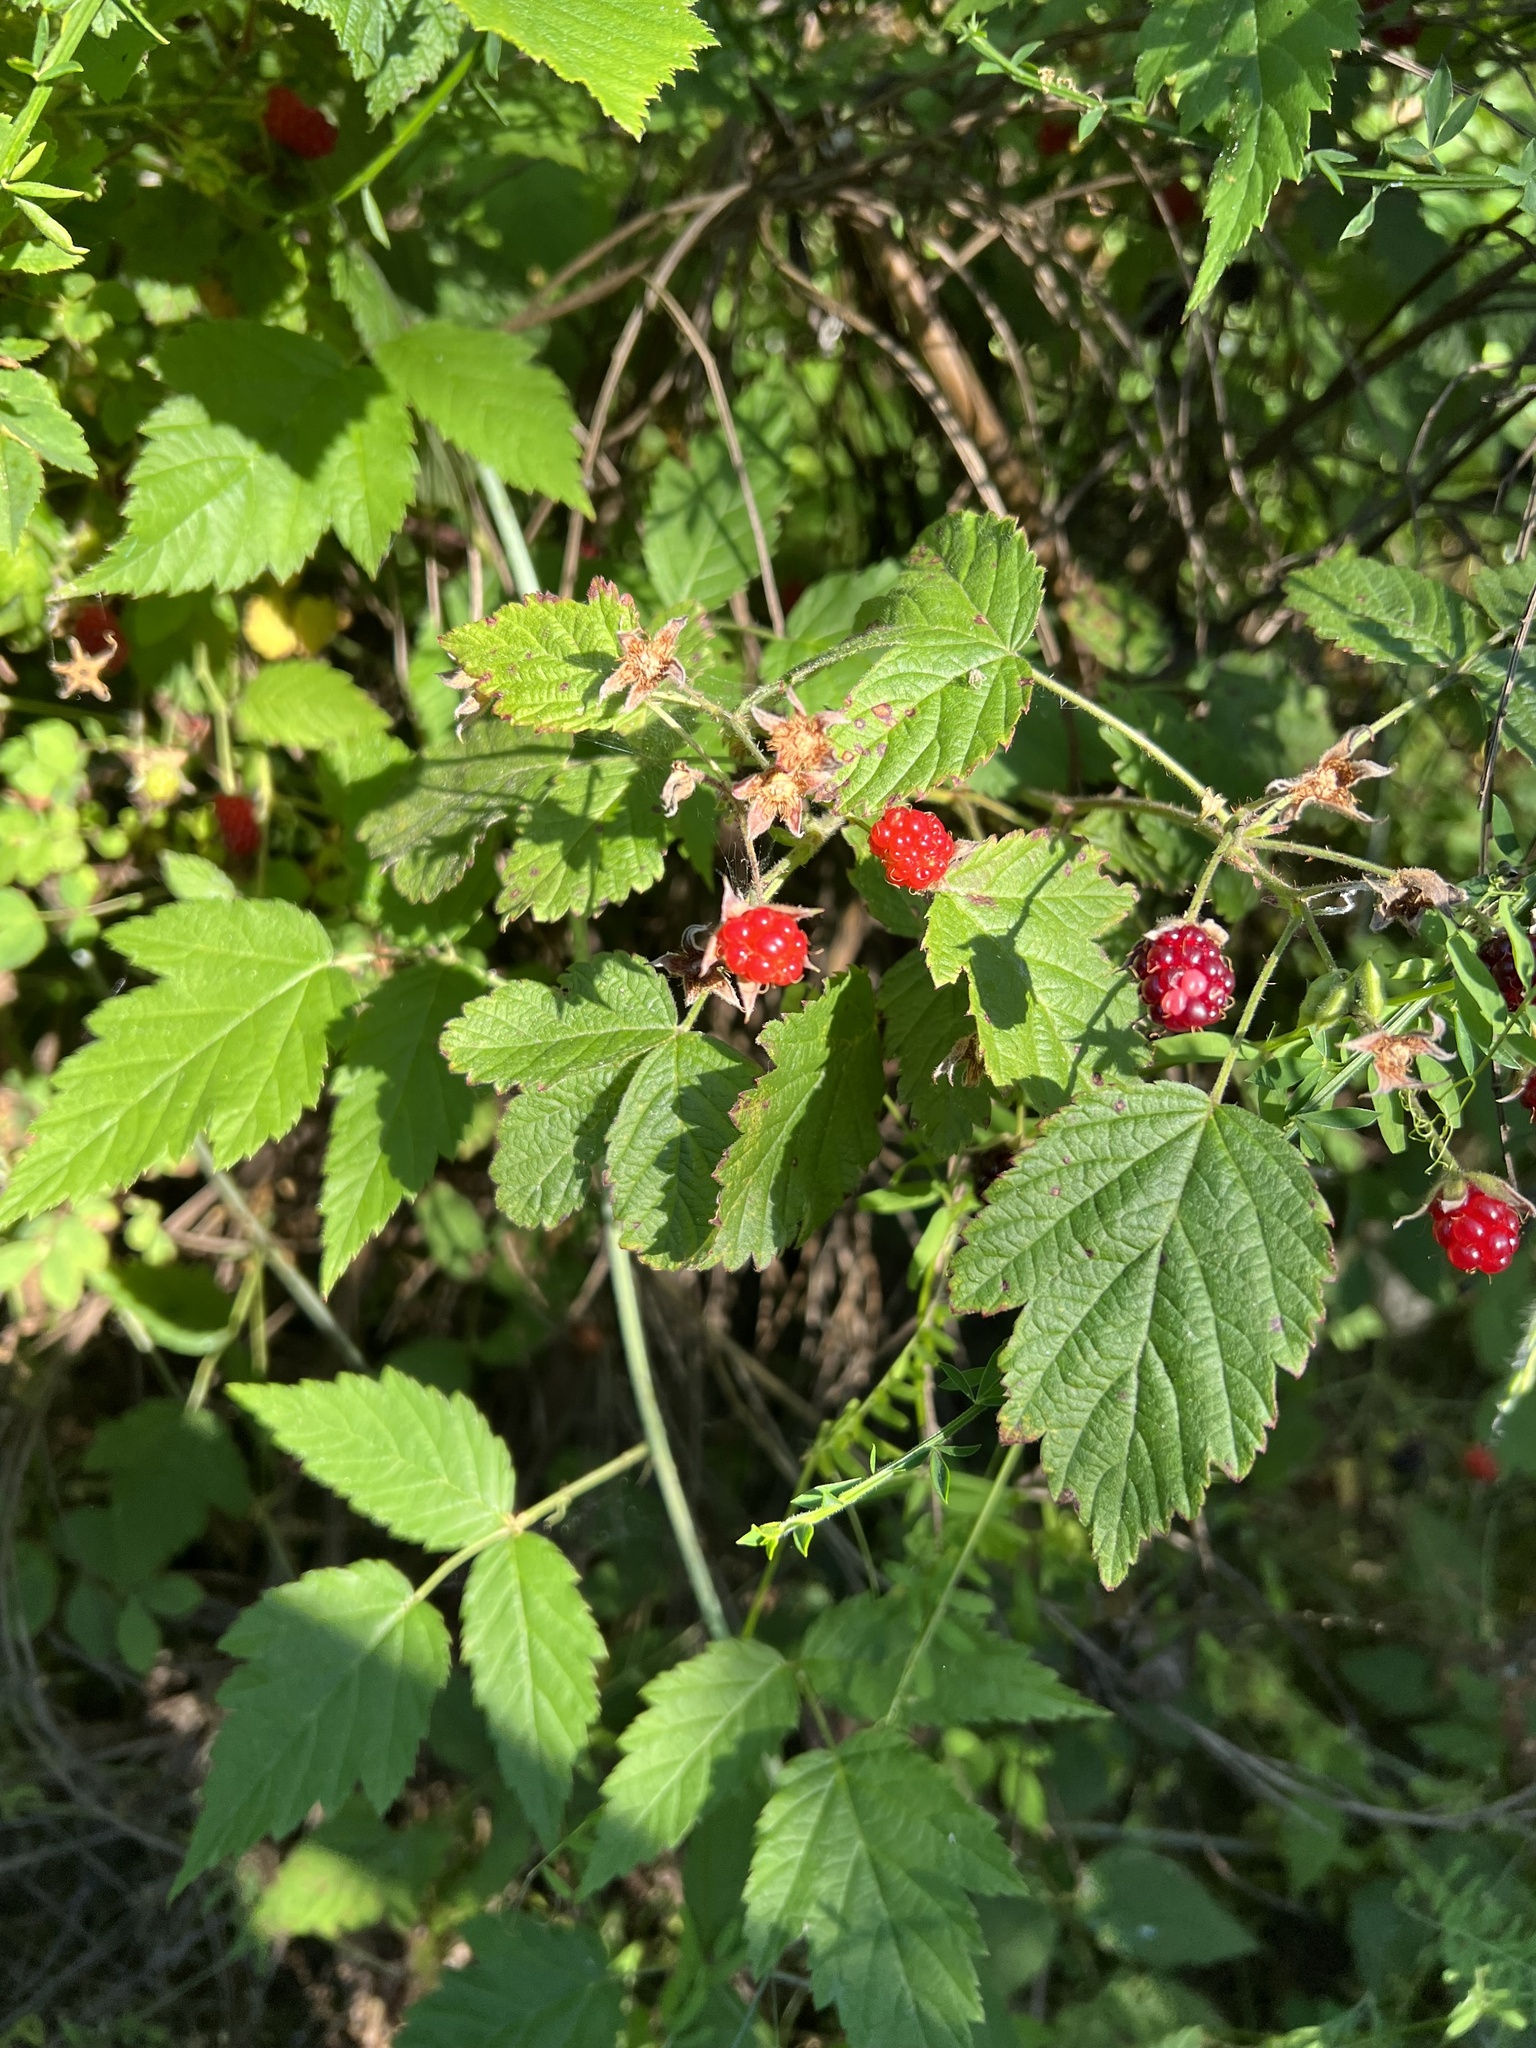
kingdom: Plantae
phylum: Tracheophyta
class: Magnoliopsida
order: Rosales
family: Rosaceae
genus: Rubus
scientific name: Rubus ursinus
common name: Pacific blackberry
